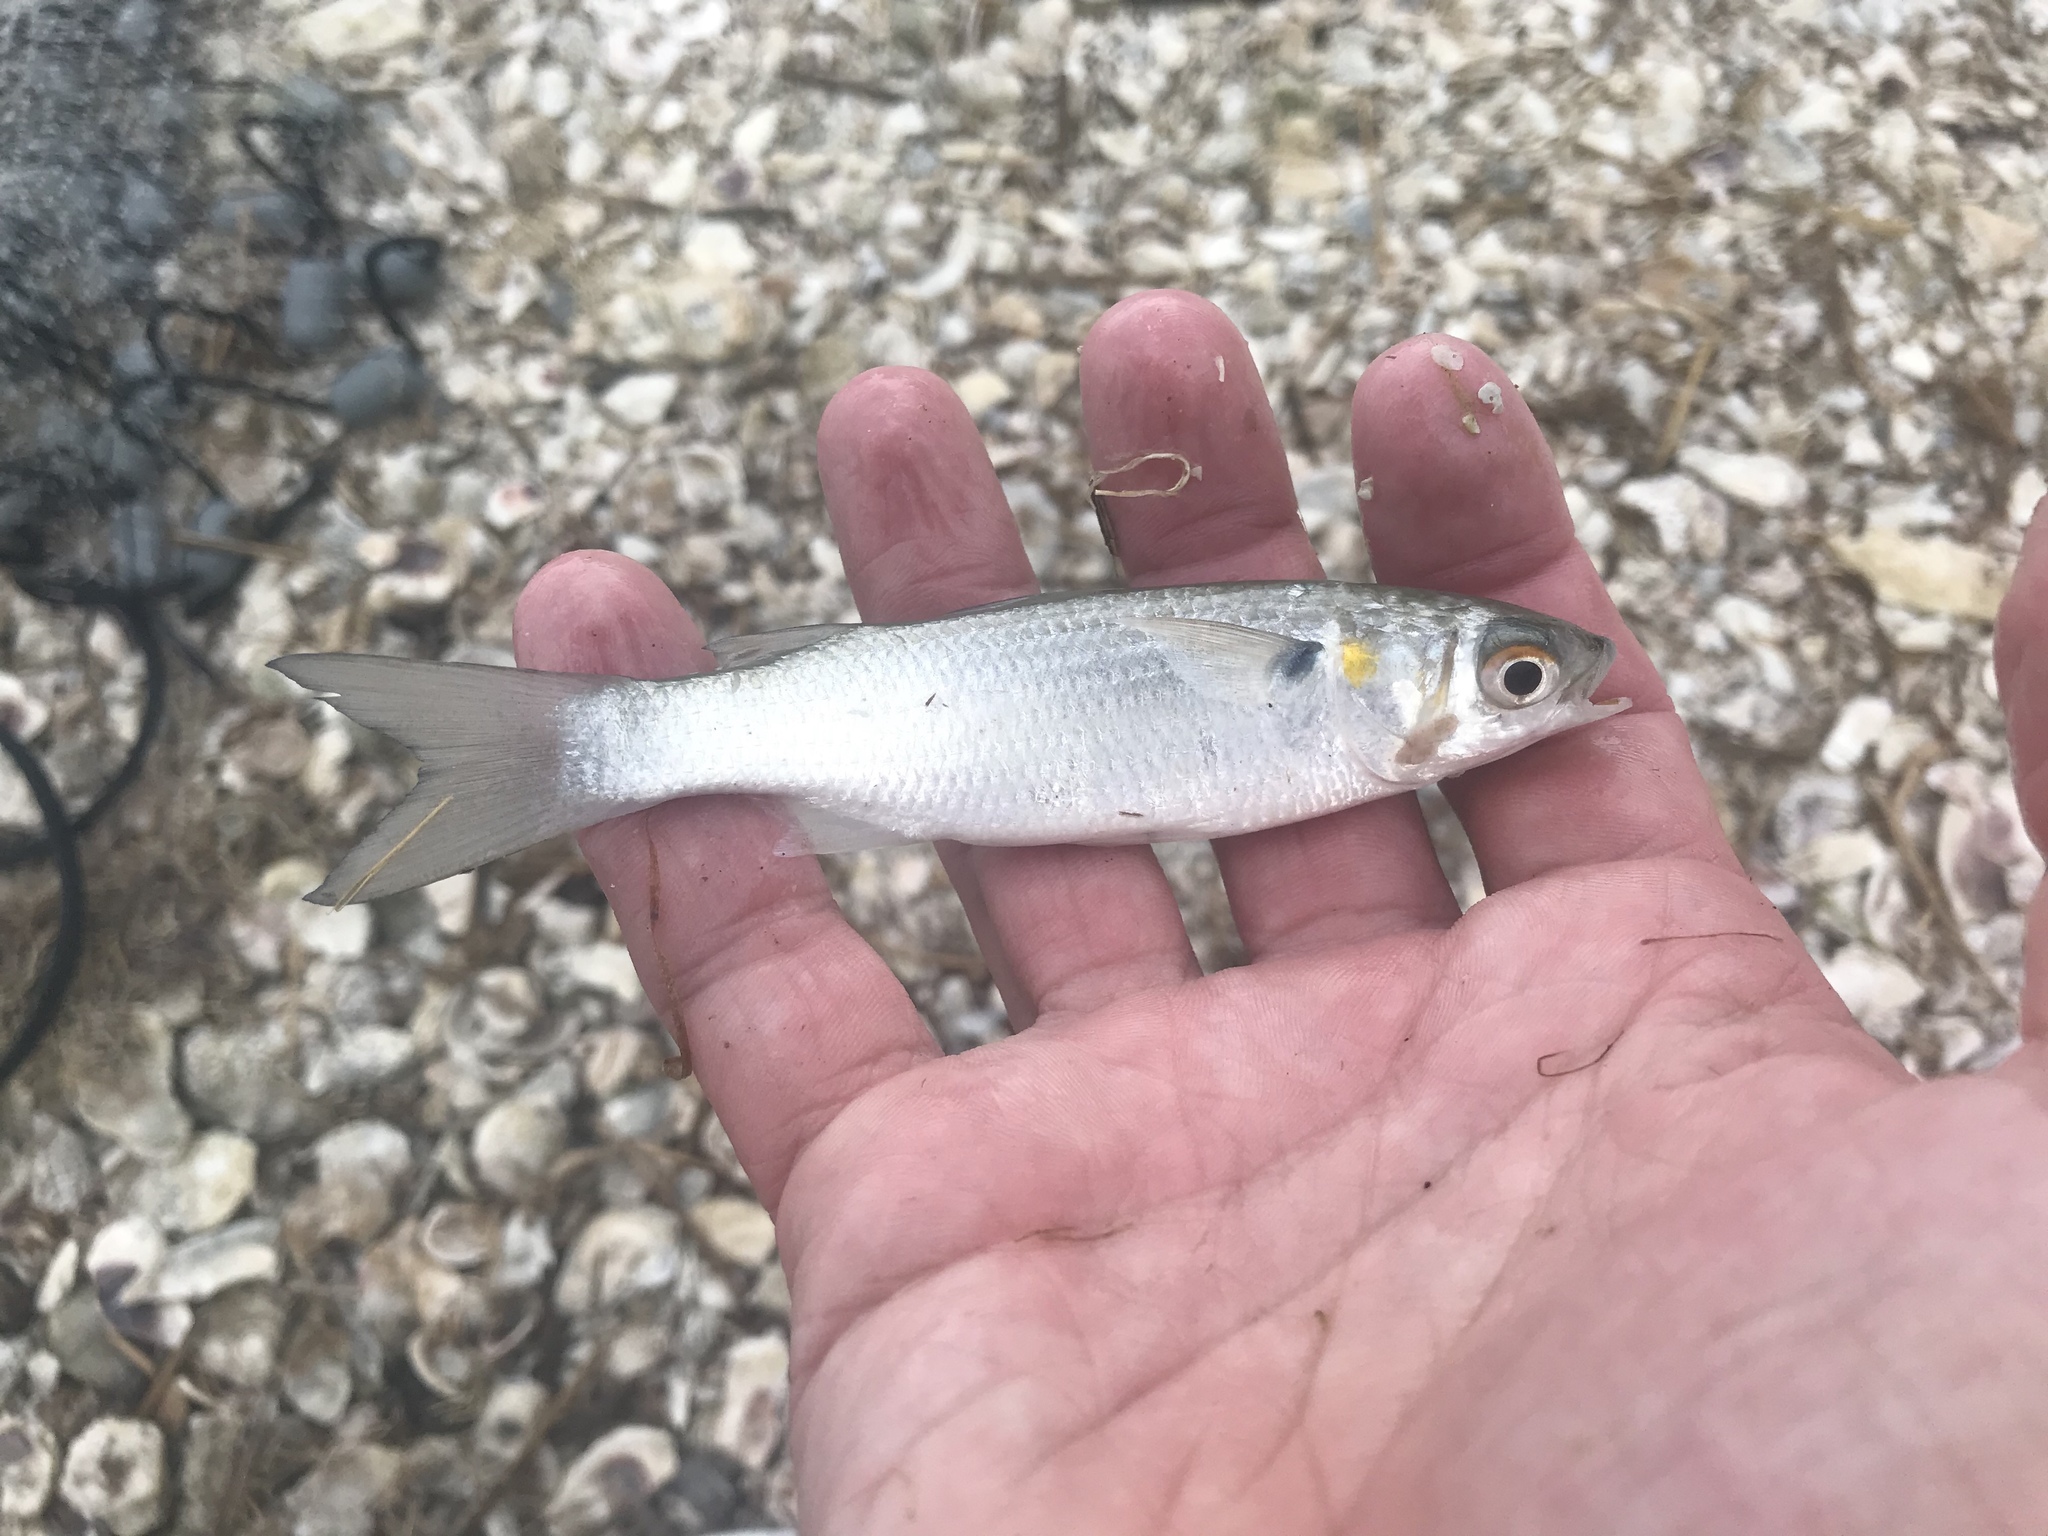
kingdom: Animalia
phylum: Chordata
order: Mugiliformes
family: Mugilidae
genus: Mugil
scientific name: Mugil curema
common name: White mullet
